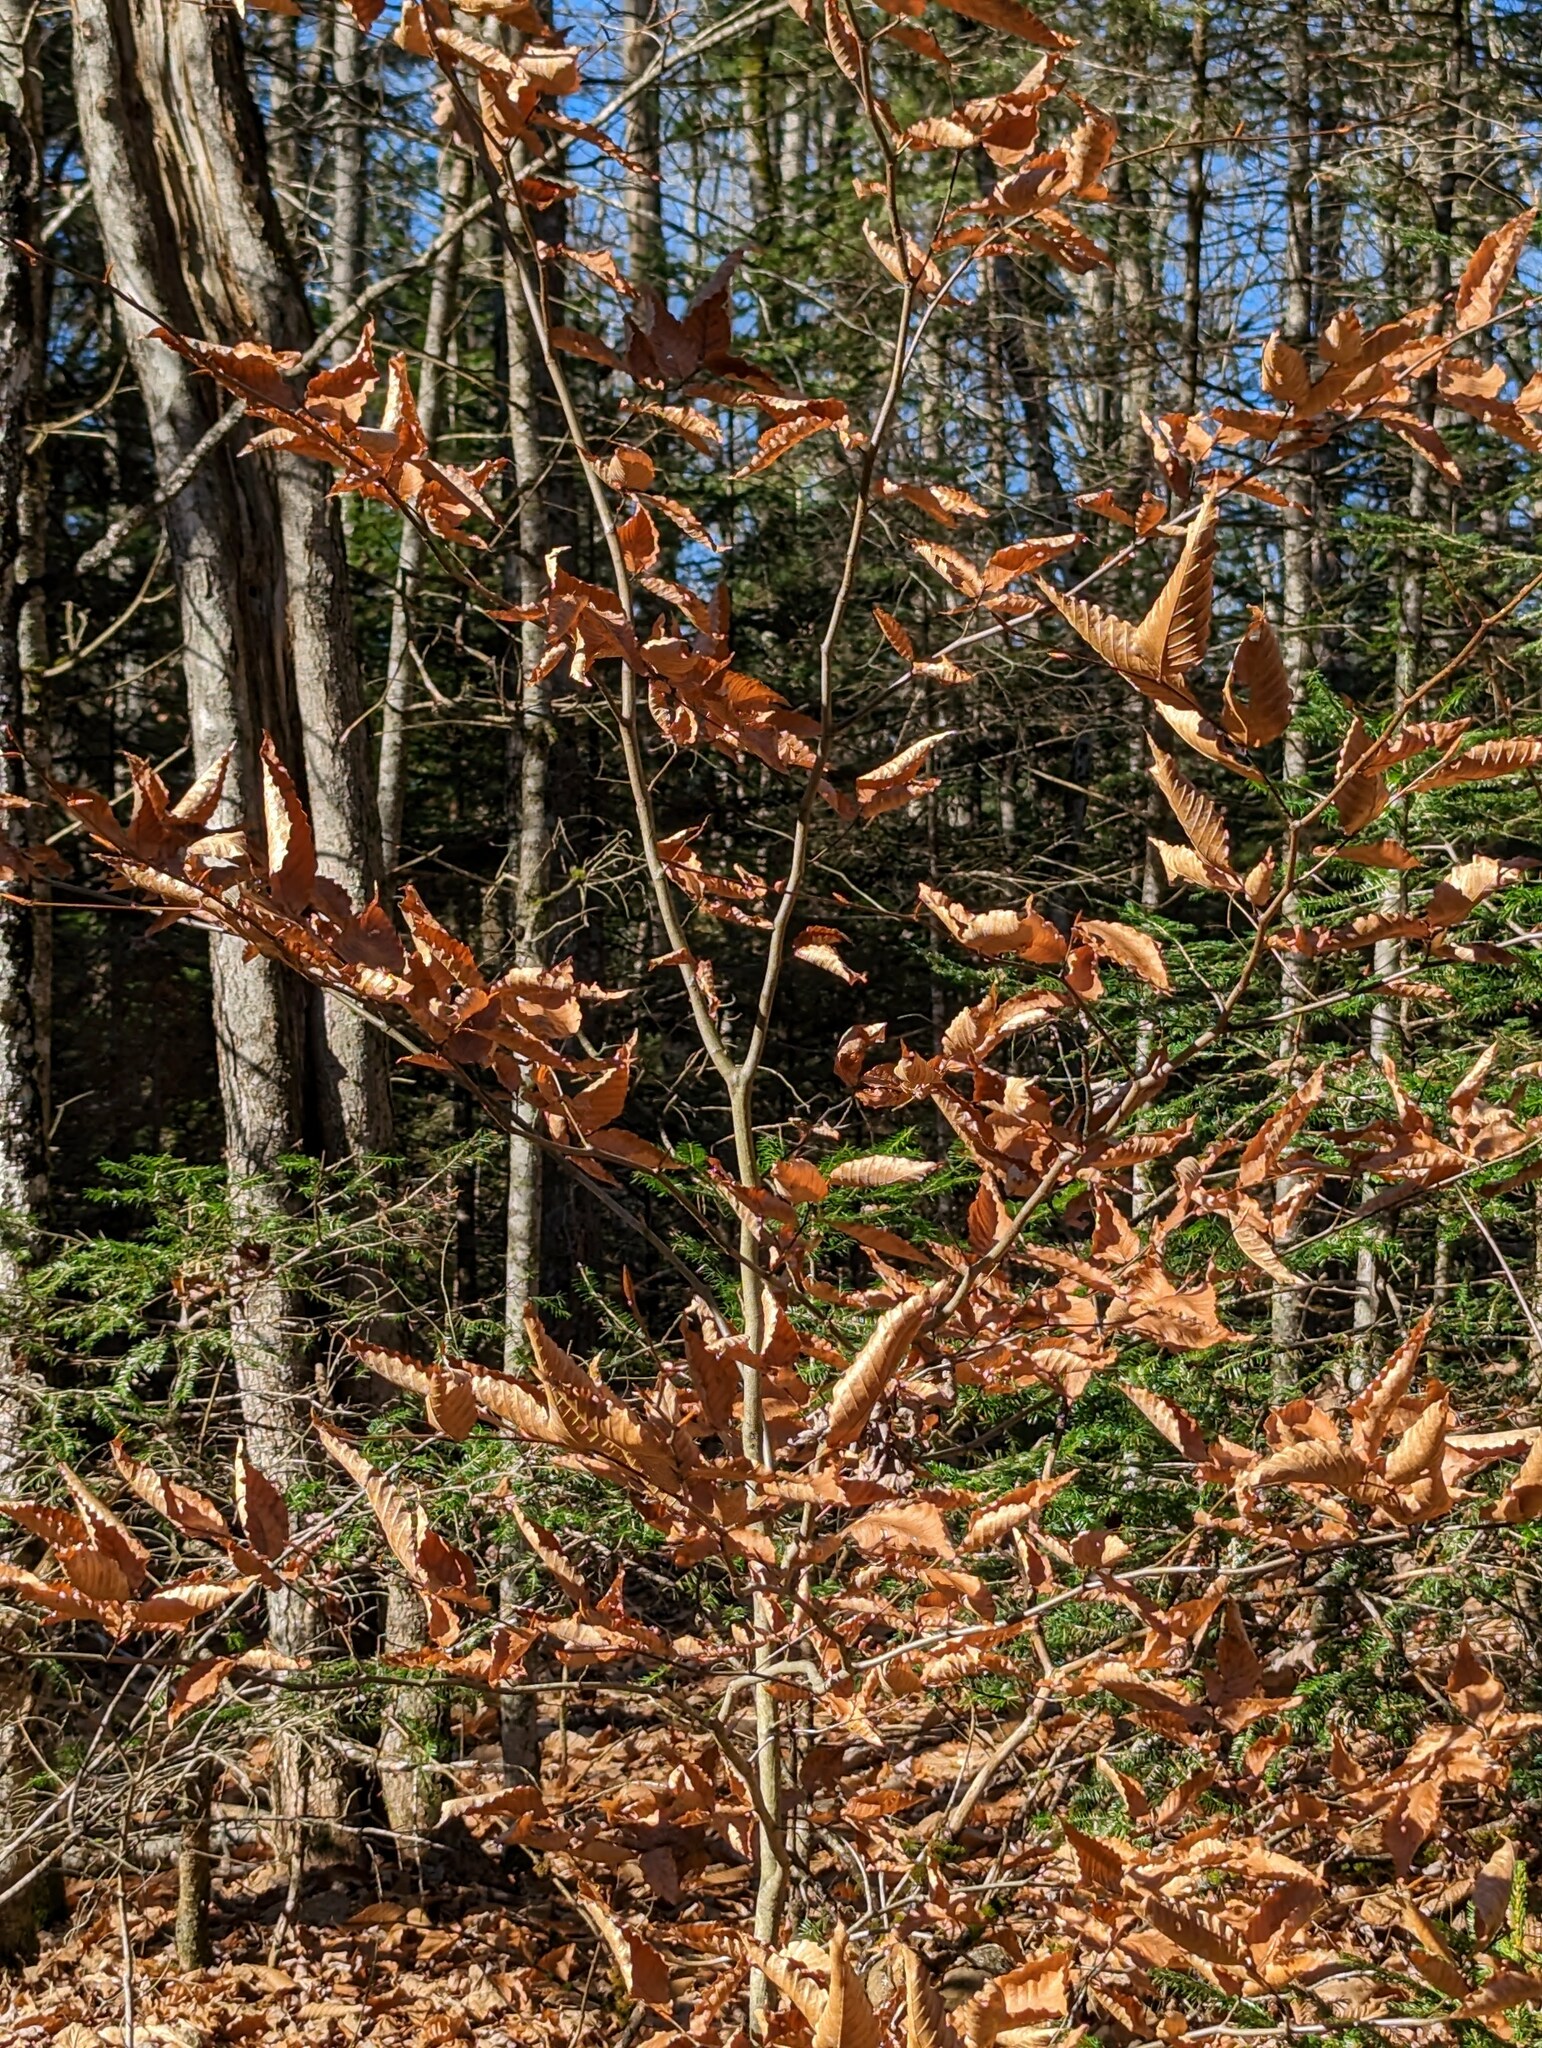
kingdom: Plantae
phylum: Tracheophyta
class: Magnoliopsida
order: Fagales
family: Fagaceae
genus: Fagus
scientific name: Fagus grandifolia
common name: American beech
